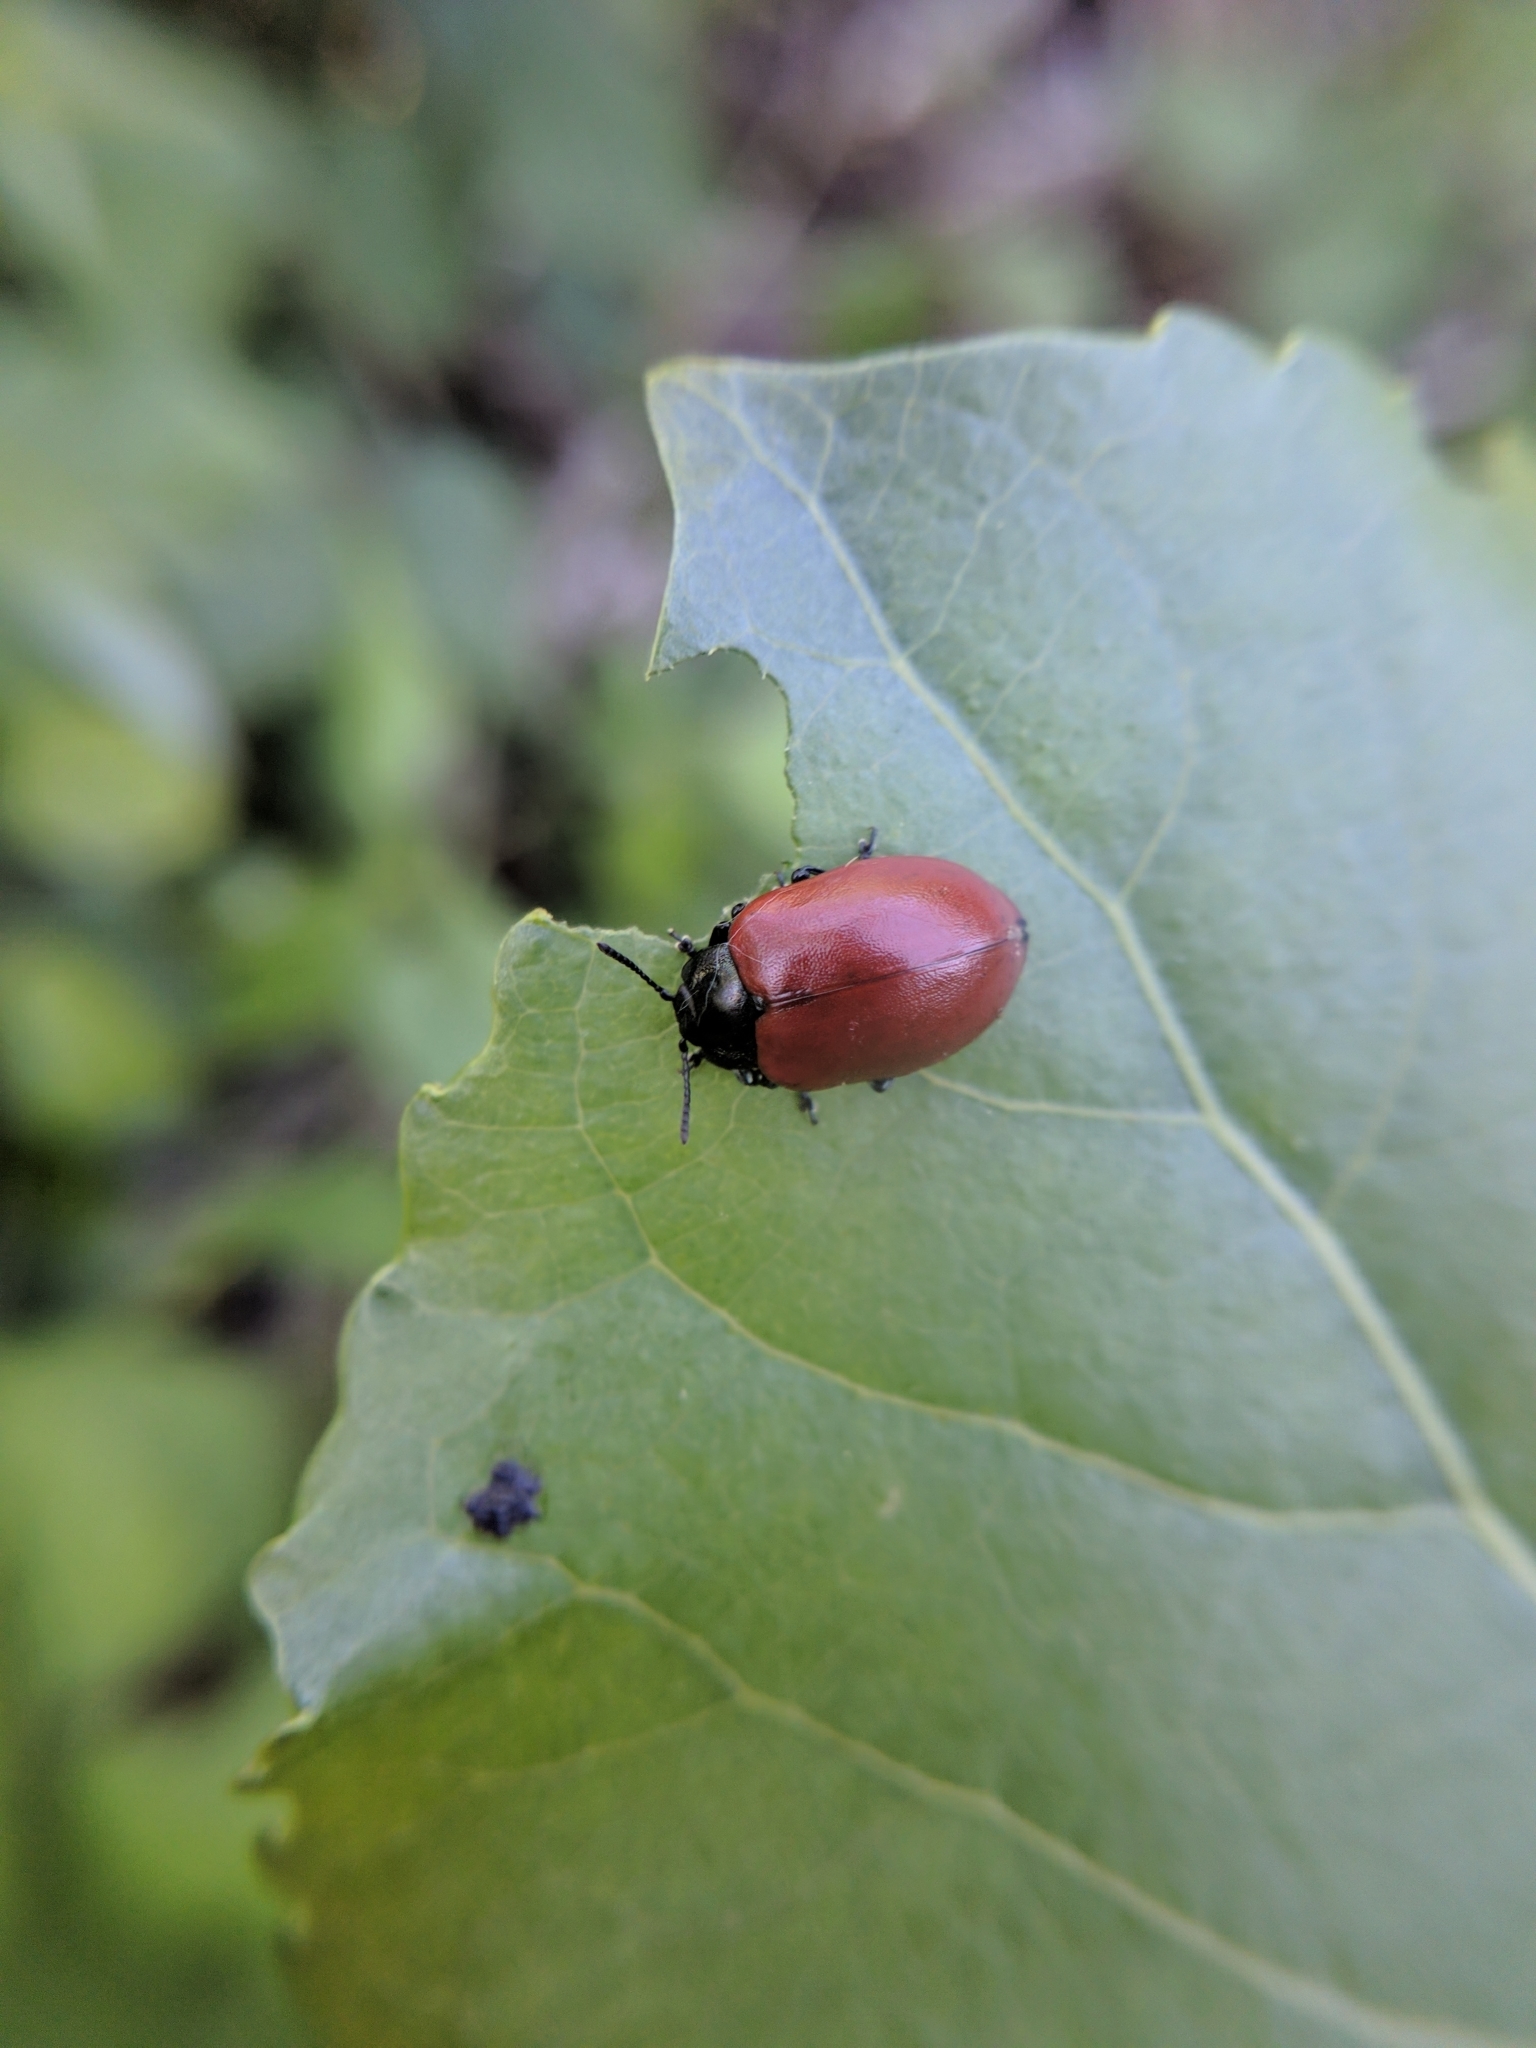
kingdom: Animalia
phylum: Arthropoda
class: Insecta
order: Coleoptera
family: Chrysomelidae
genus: Chrysomela
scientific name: Chrysomela populi
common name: Red poplar leaf beetle
